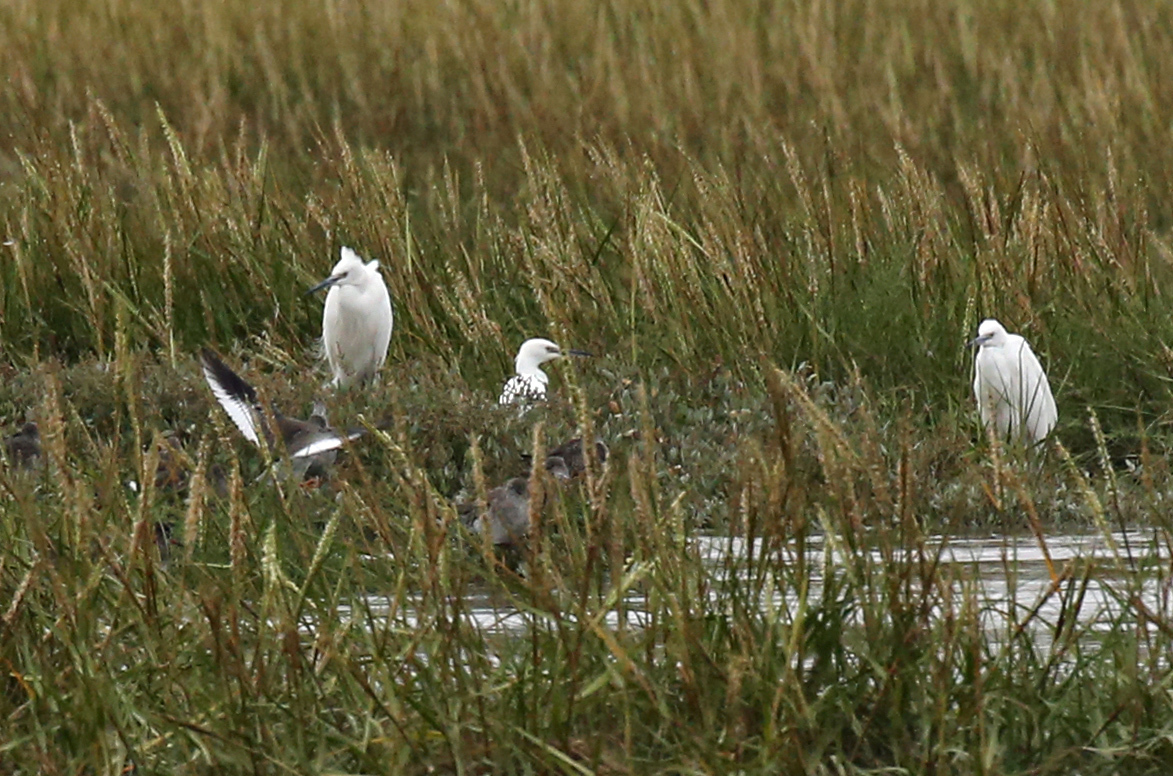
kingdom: Animalia
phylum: Chordata
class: Aves
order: Pelecaniformes
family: Ardeidae
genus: Egretta
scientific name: Egretta garzetta
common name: Little egret
